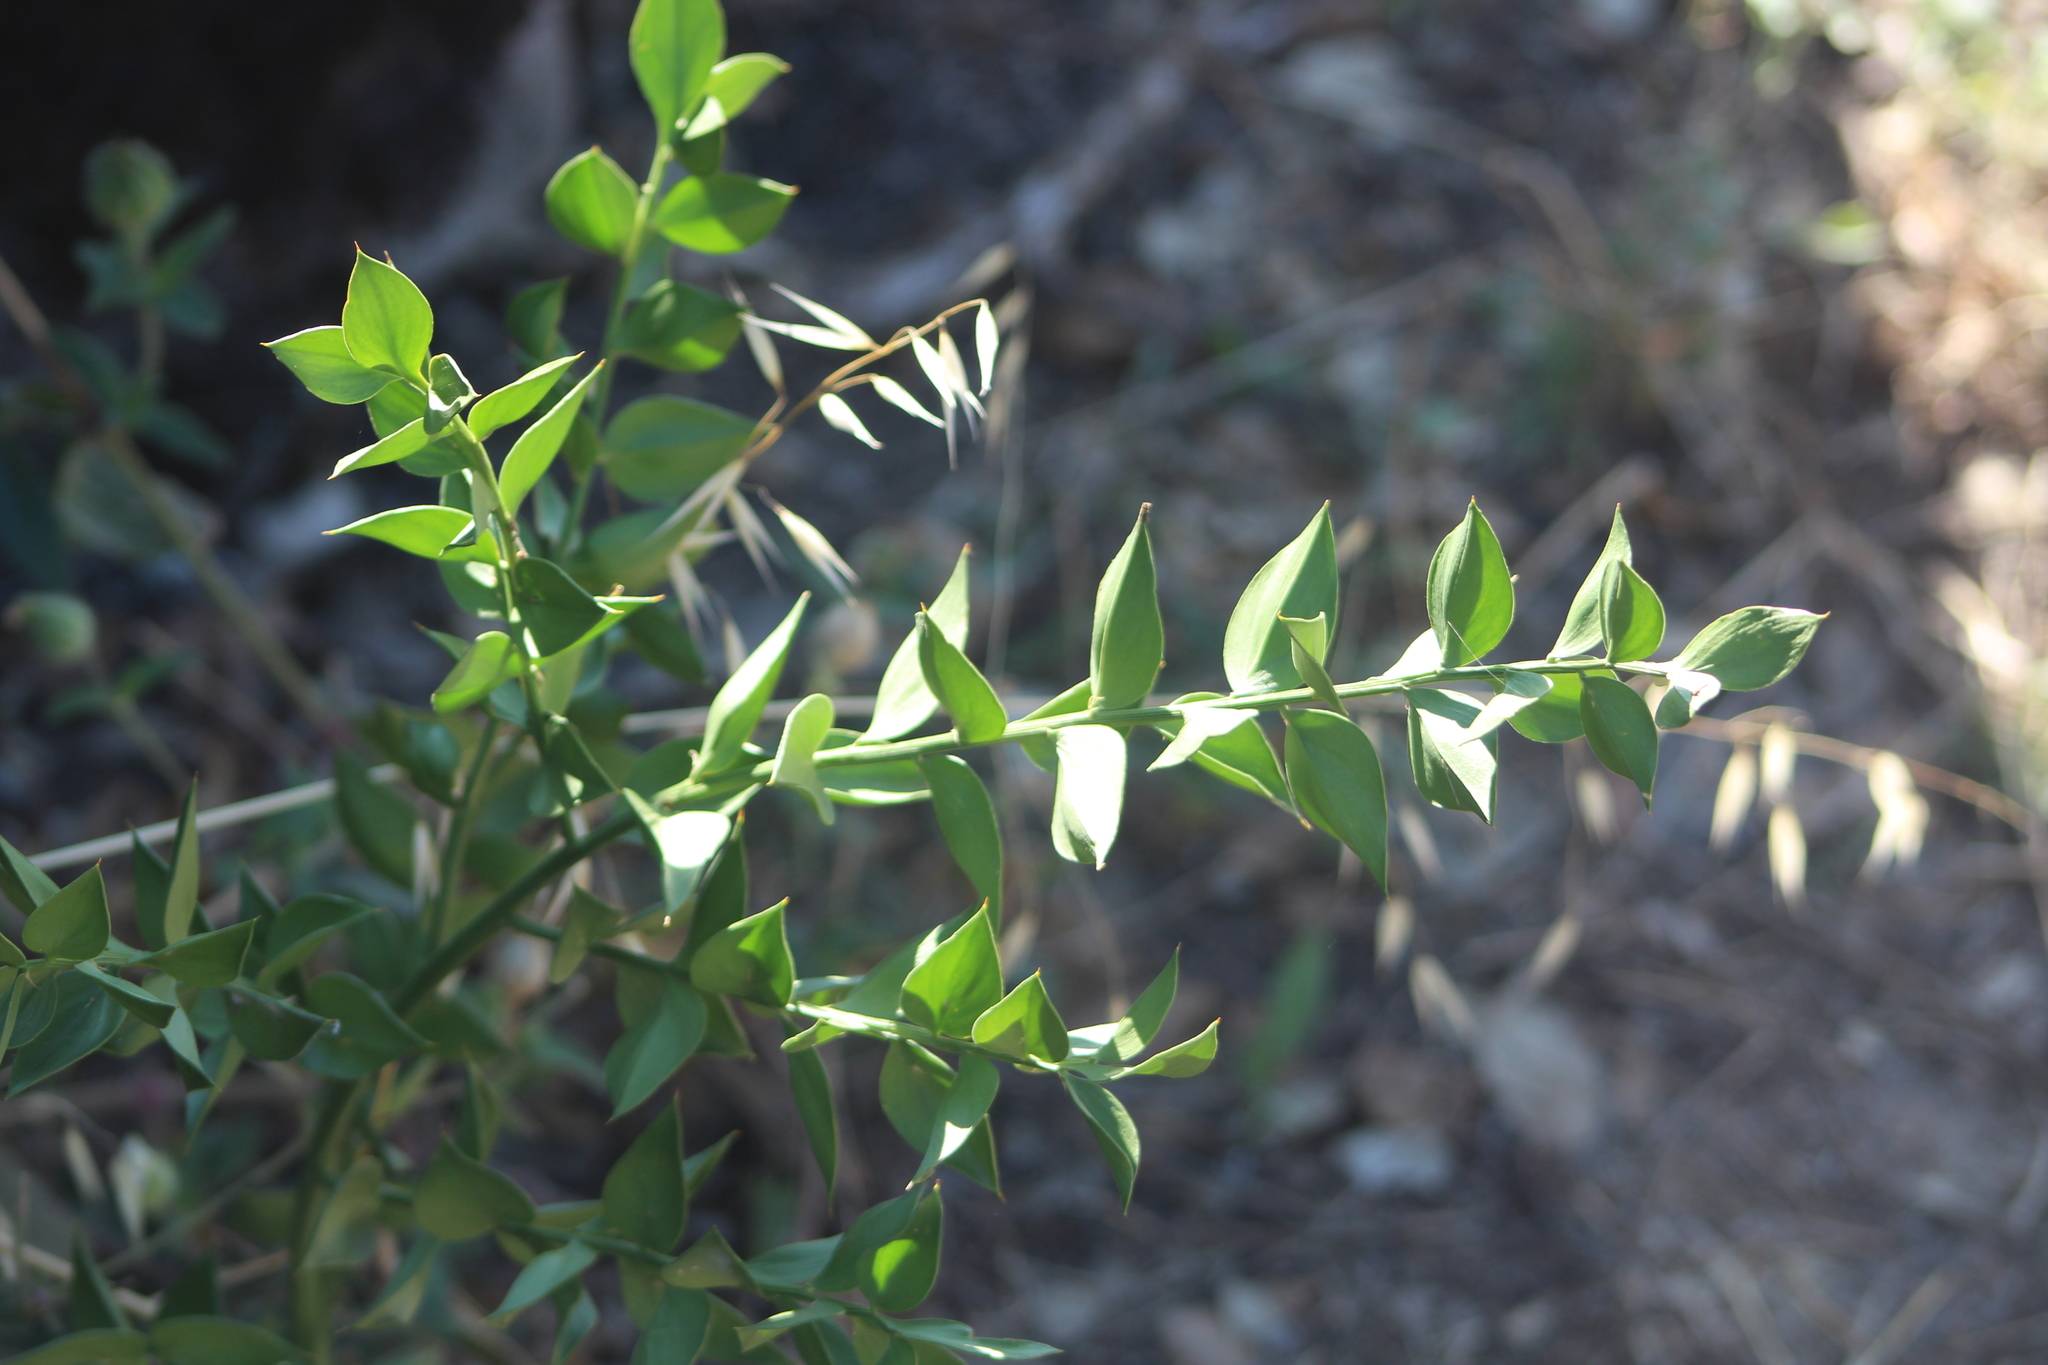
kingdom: Plantae
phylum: Tracheophyta
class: Liliopsida
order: Asparagales
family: Asparagaceae
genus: Ruscus
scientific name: Ruscus aculeatus
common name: Butcher's-broom
